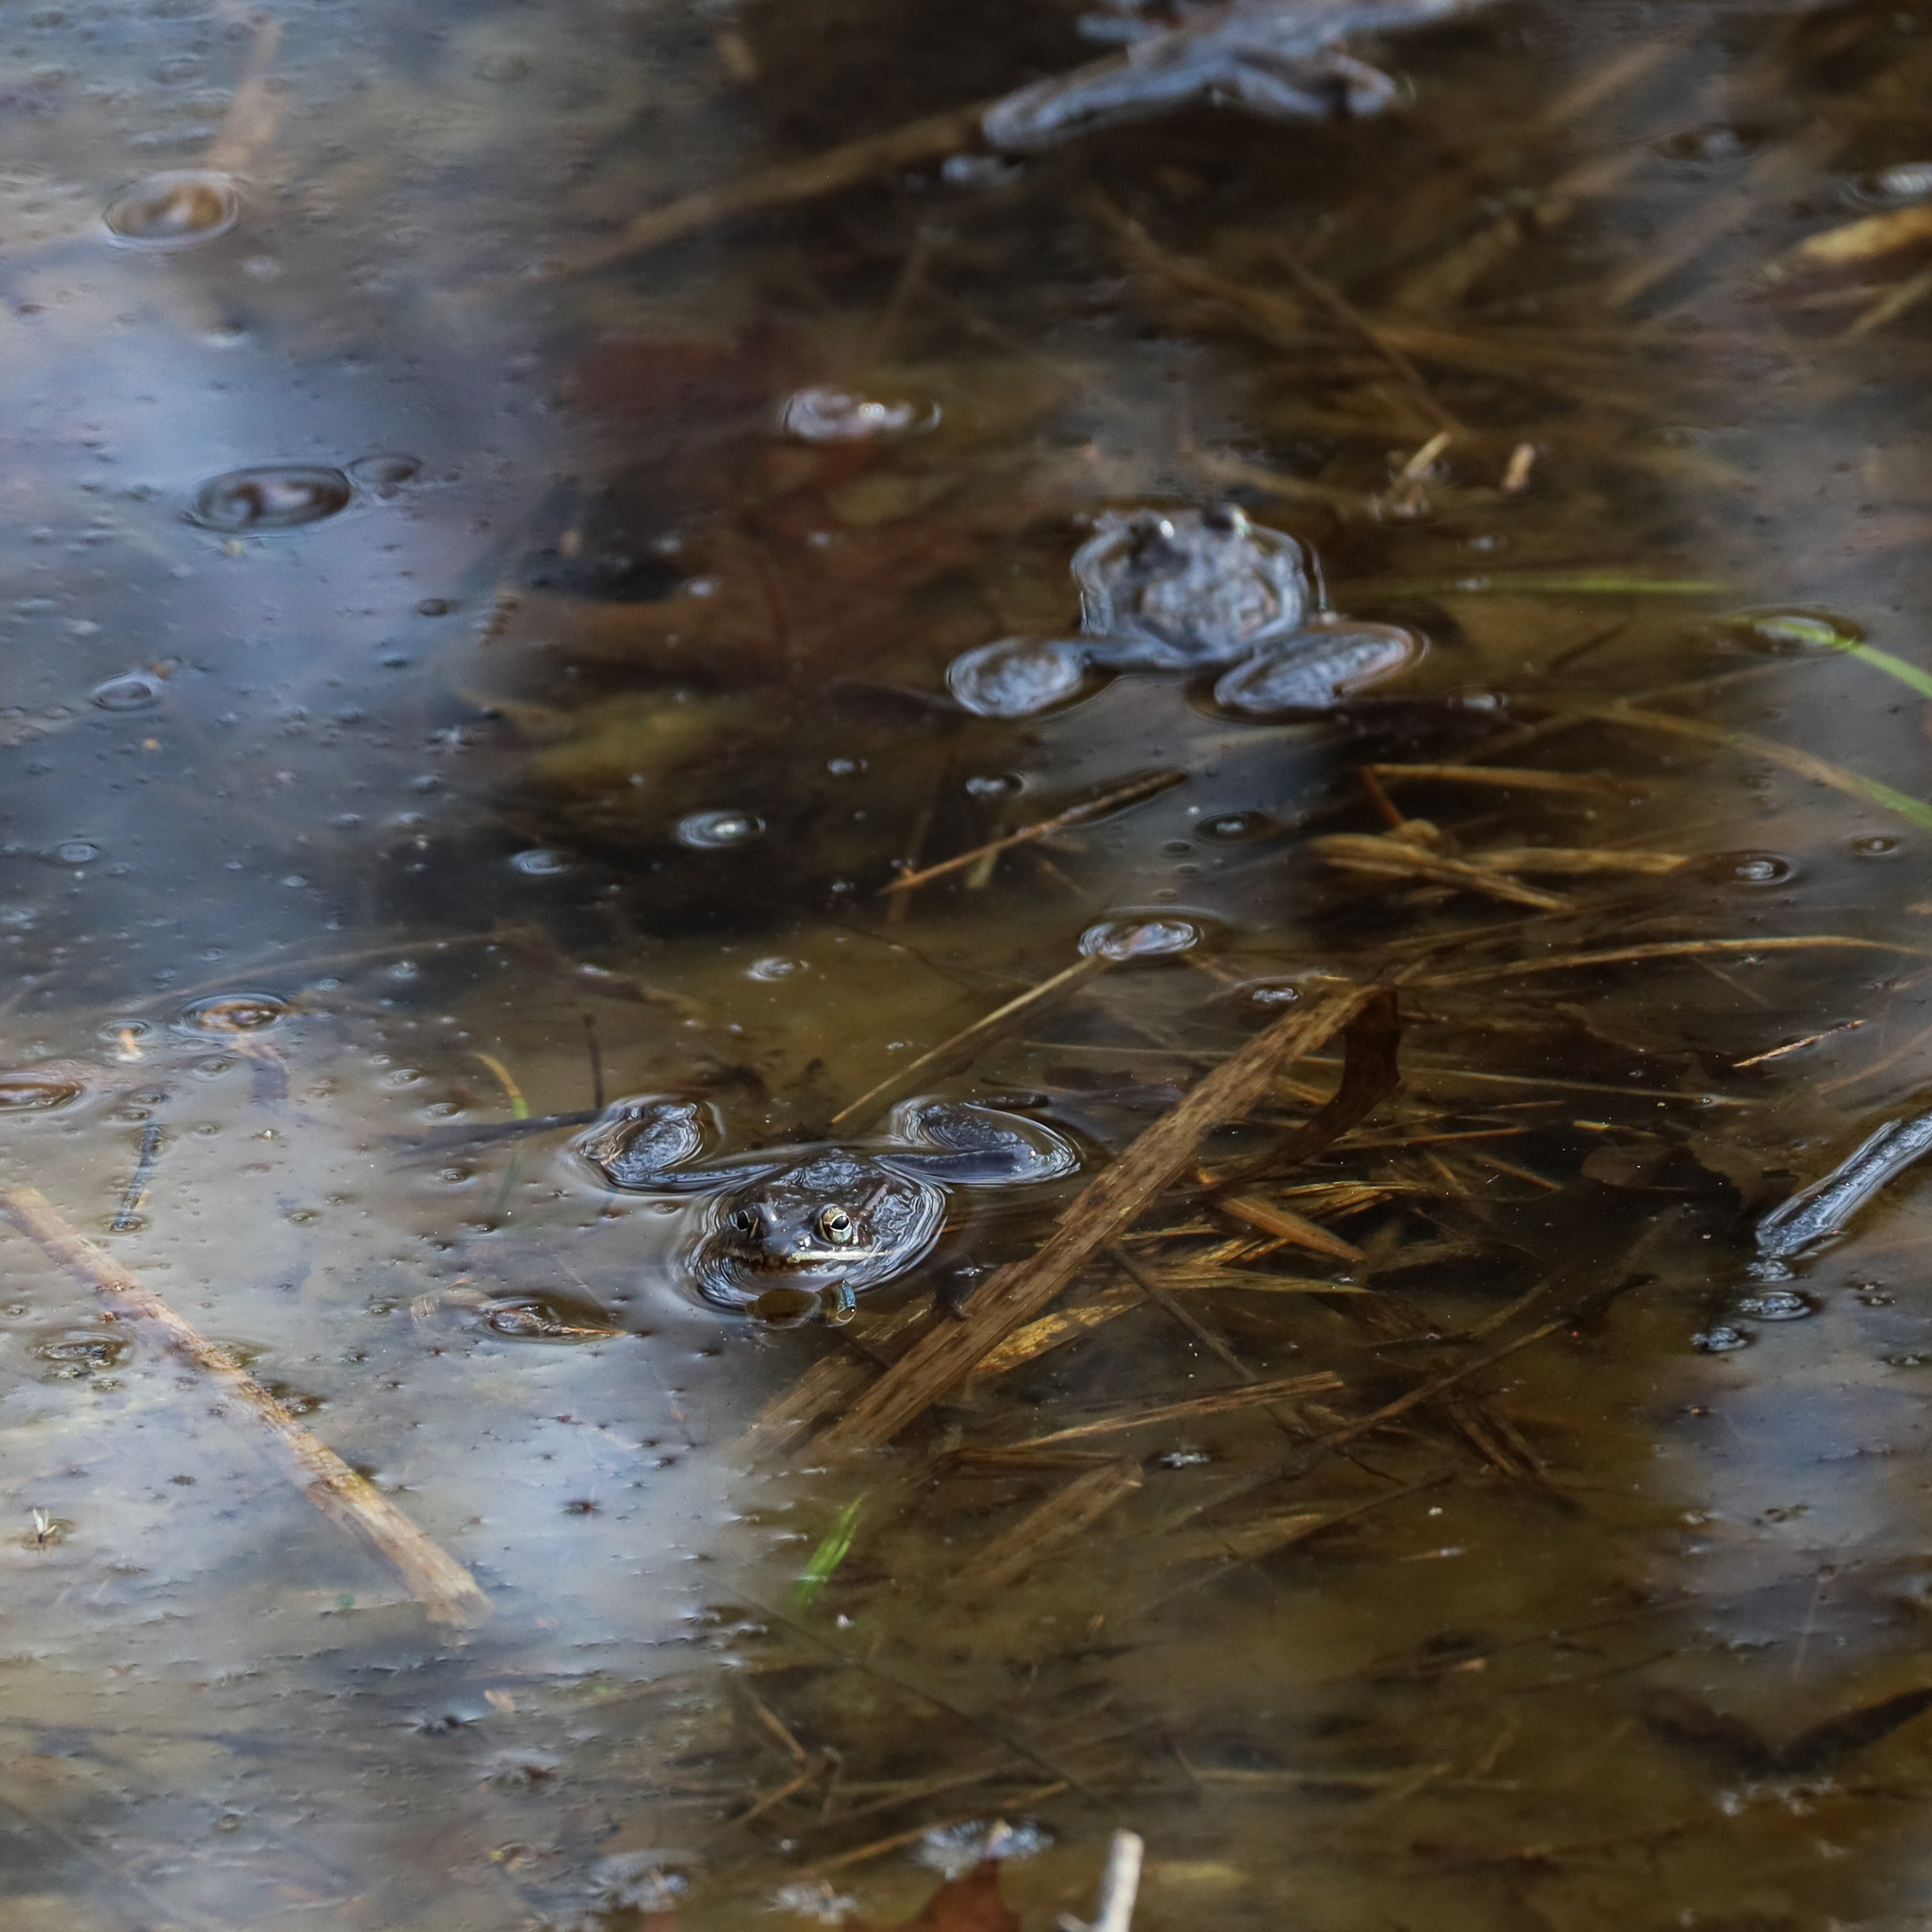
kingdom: Animalia
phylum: Chordata
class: Amphibia
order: Anura
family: Ranidae
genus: Lithobates
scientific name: Lithobates sylvaticus
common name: Wood frog
